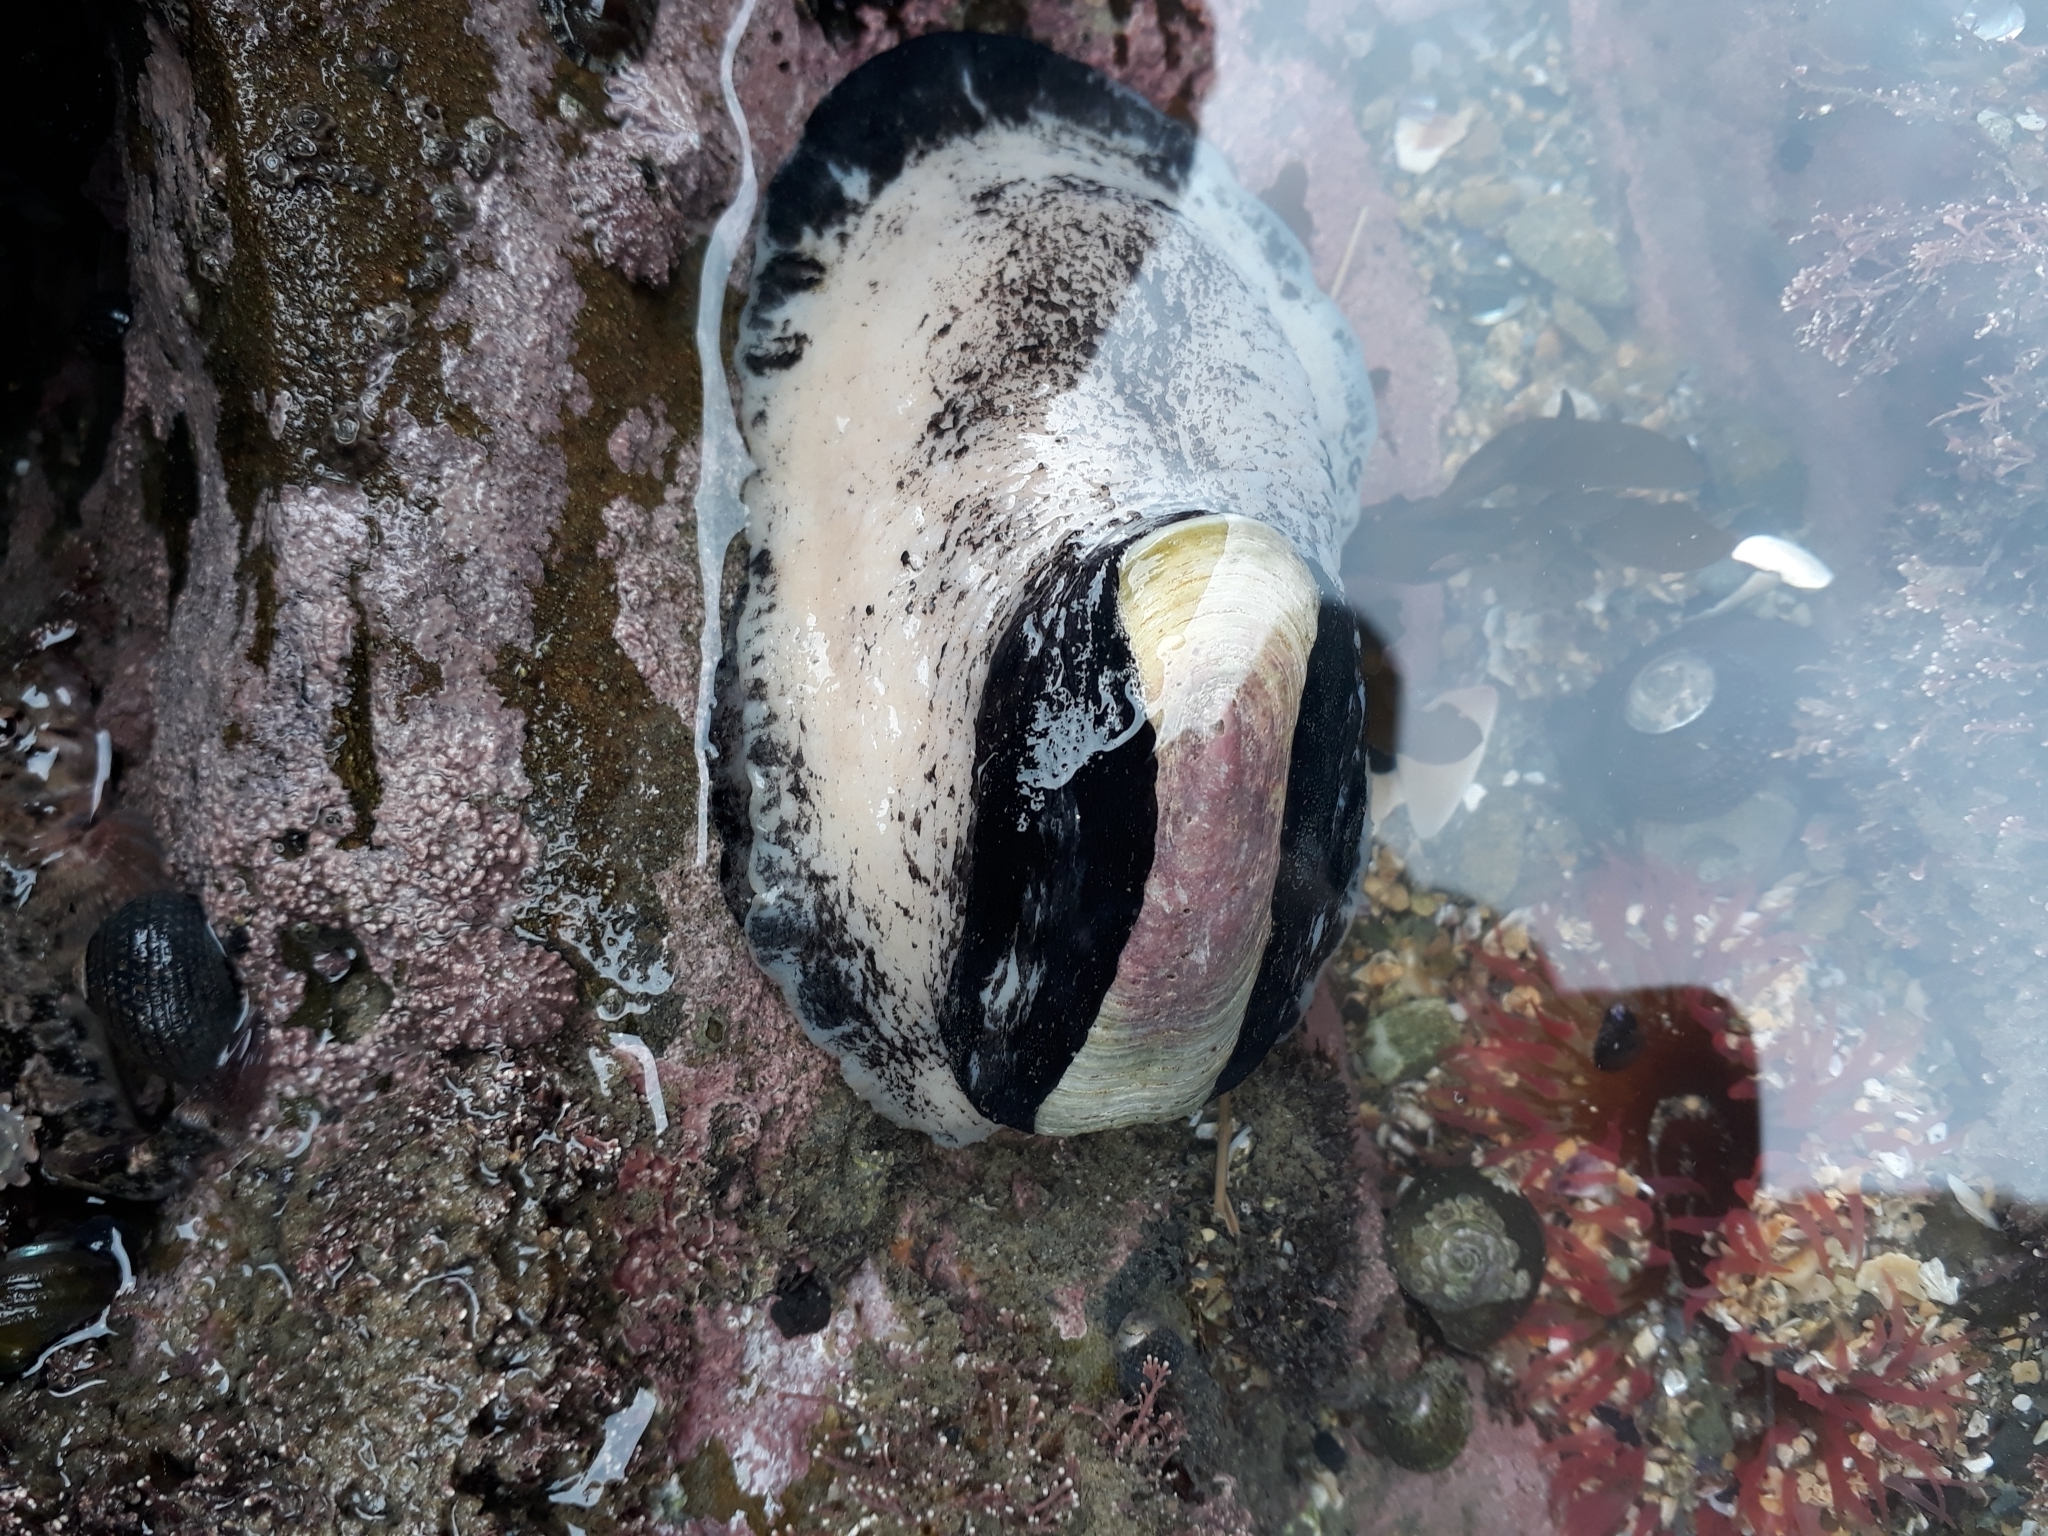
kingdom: Animalia
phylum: Mollusca
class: Gastropoda
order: Lepetellida
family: Fissurellidae
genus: Scutus
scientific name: Scutus breviculus
